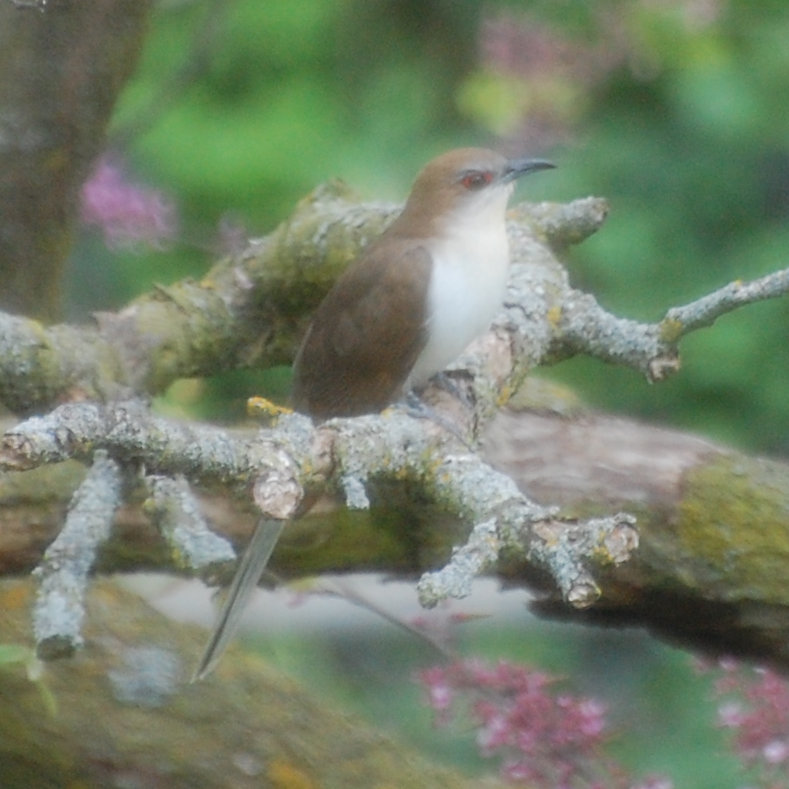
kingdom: Animalia
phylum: Chordata
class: Aves
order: Cuculiformes
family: Cuculidae
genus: Coccyzus
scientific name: Coccyzus erythropthalmus
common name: Black-billed cuckoo
